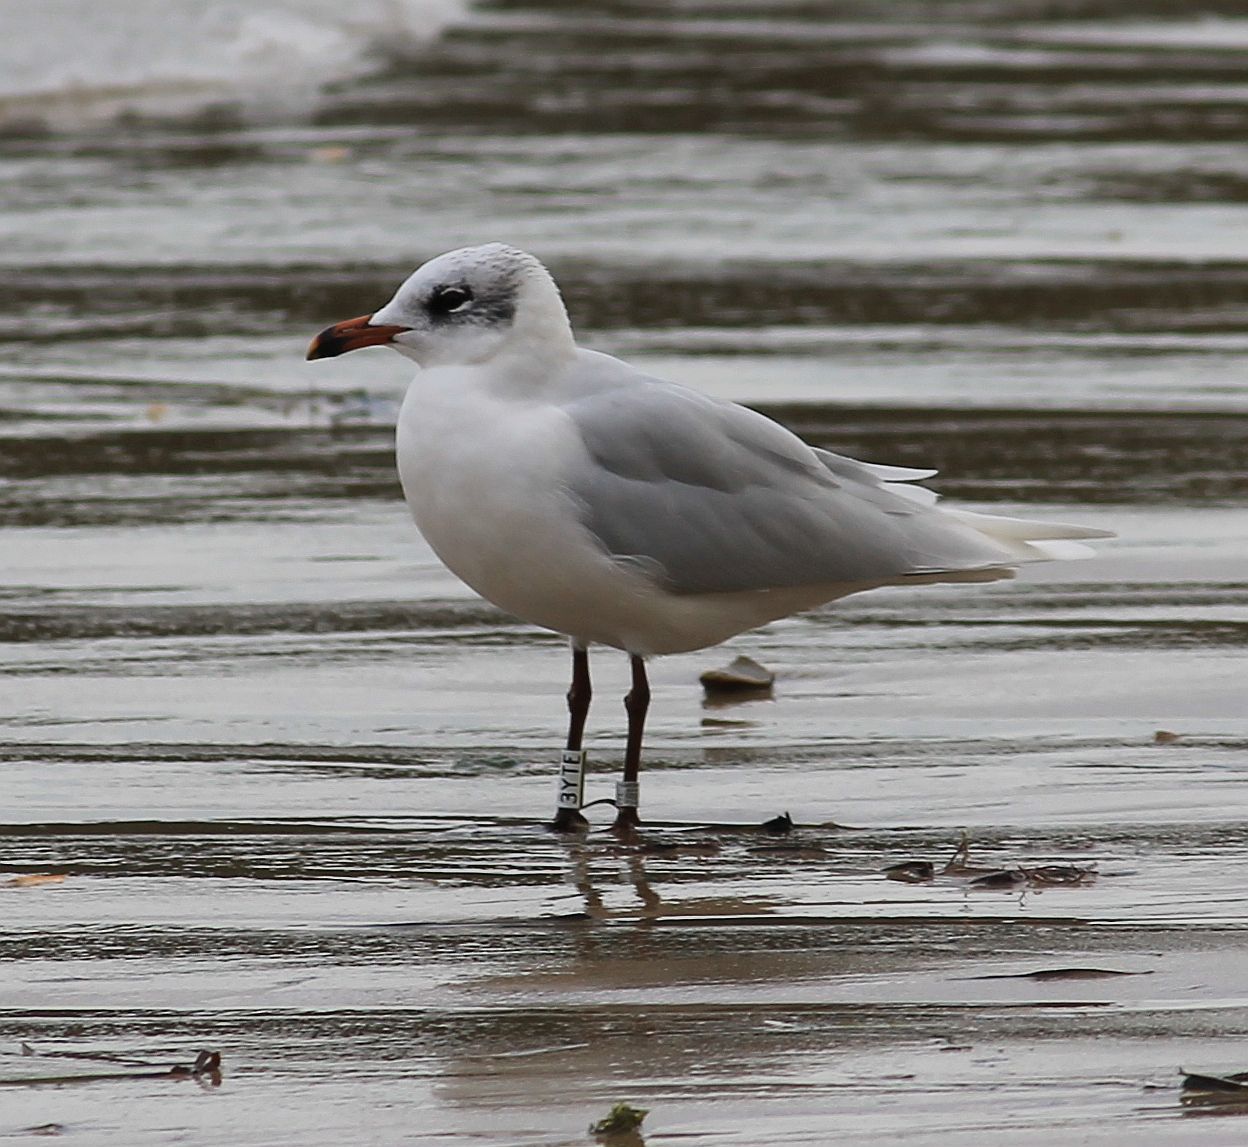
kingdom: Animalia
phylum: Chordata
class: Aves
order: Charadriiformes
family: Laridae
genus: Ichthyaetus
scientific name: Ichthyaetus melanocephalus
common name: Mediterranean gull
